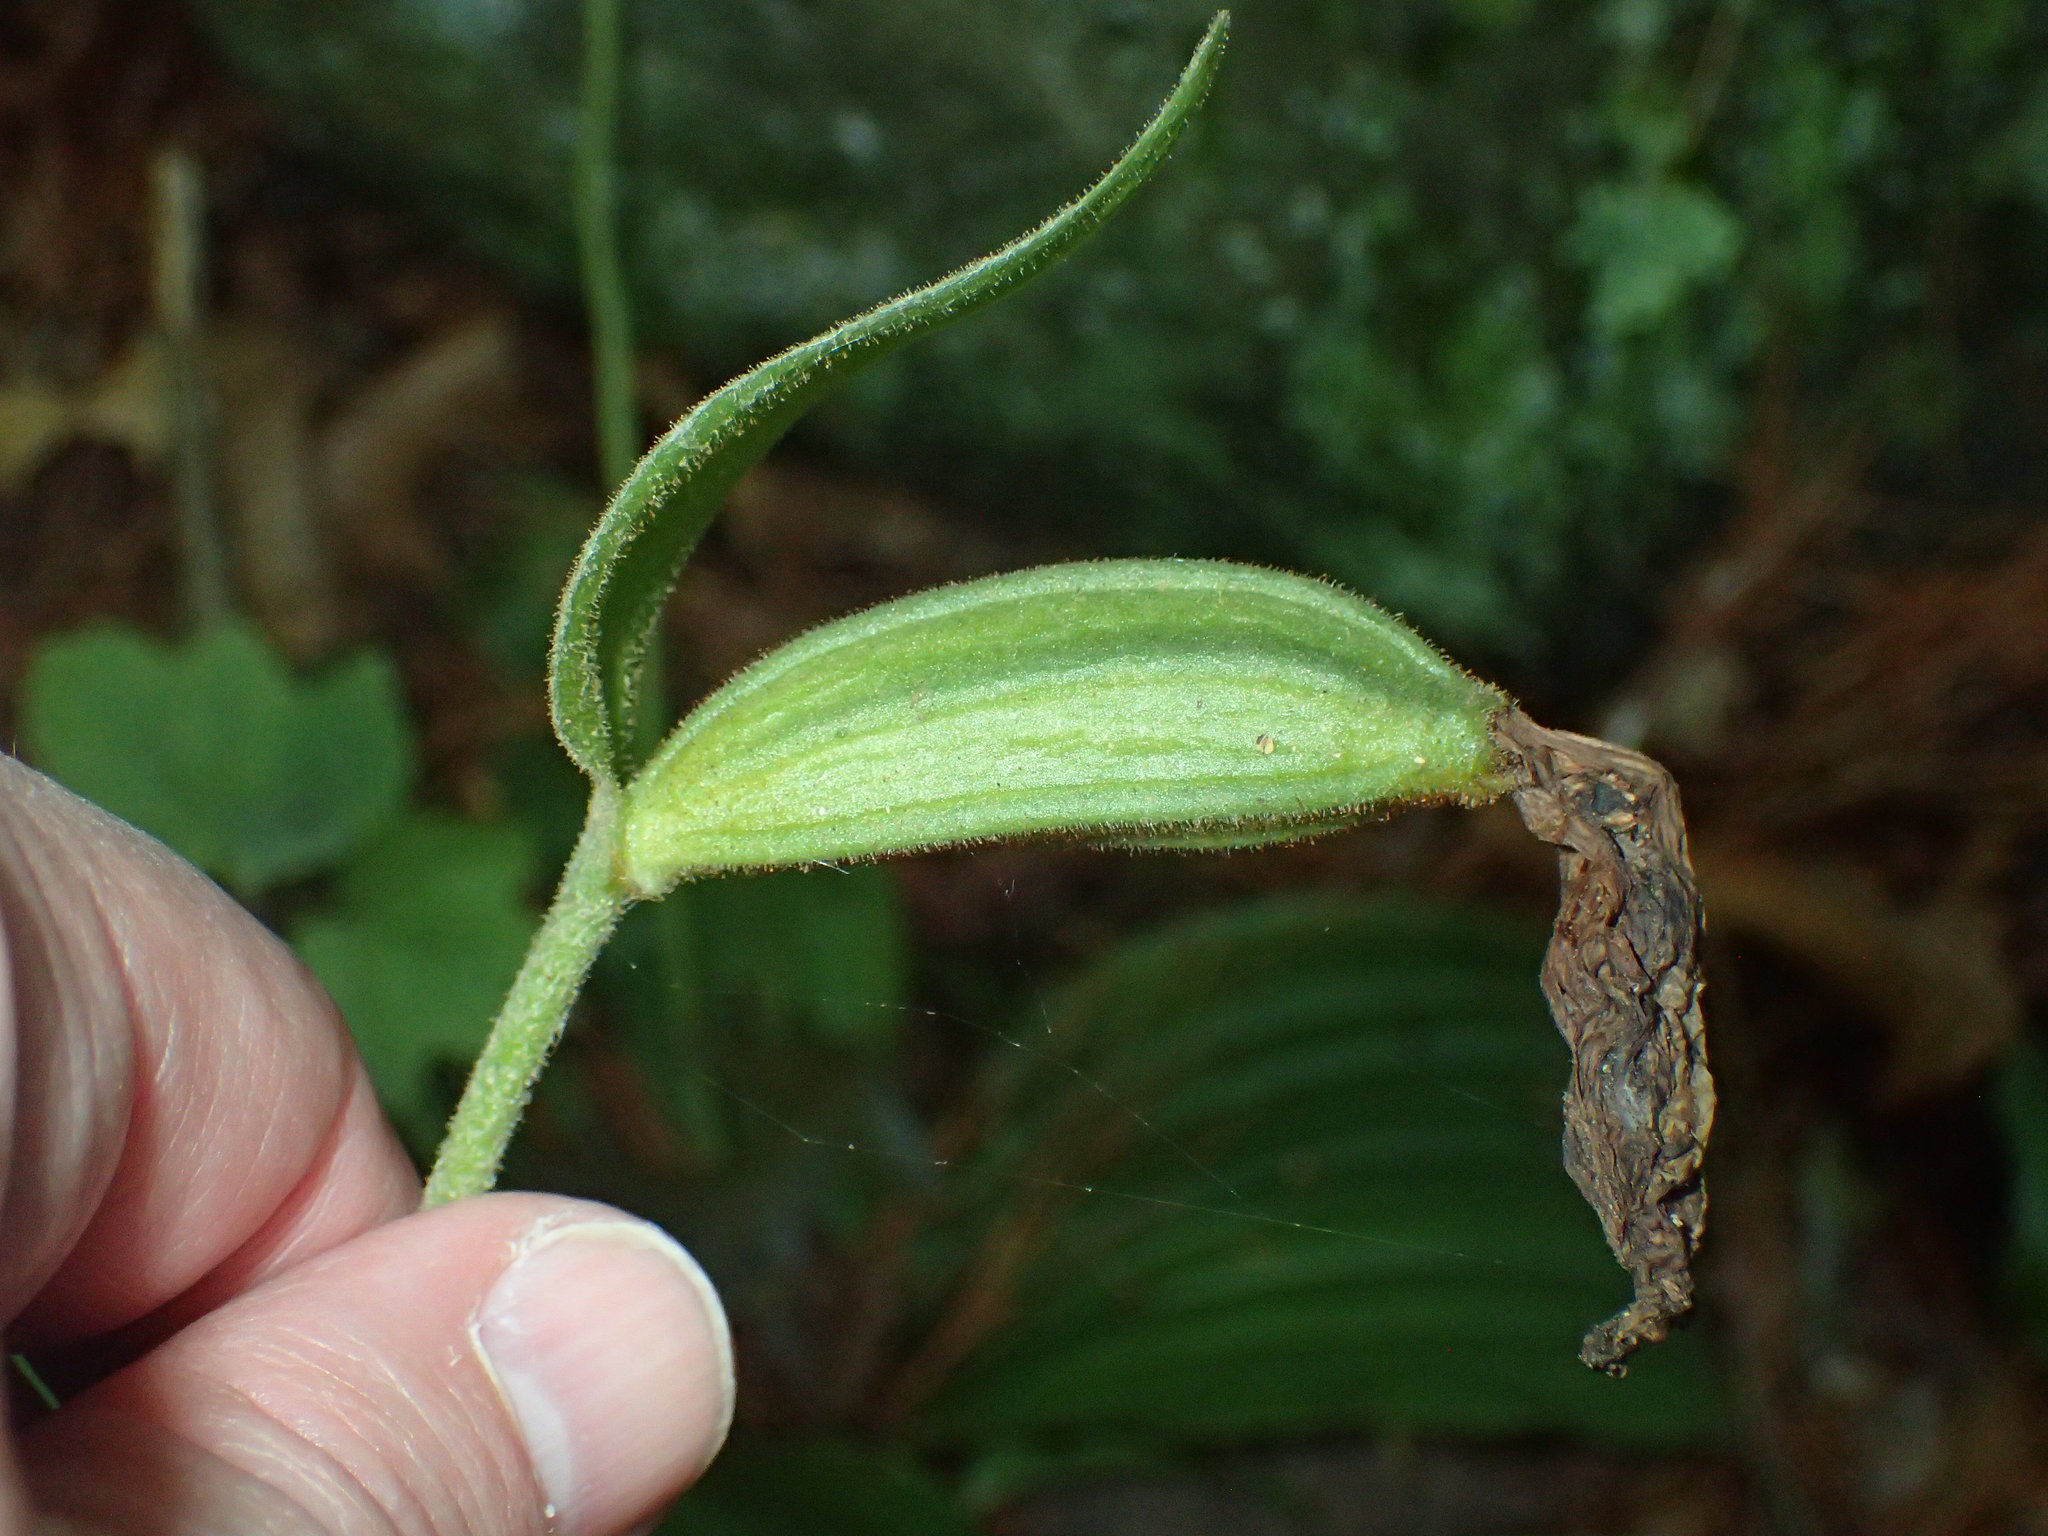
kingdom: Plantae
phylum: Tracheophyta
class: Liliopsida
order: Asparagales
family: Orchidaceae
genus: Cypripedium
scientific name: Cypripedium acaule
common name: Pink lady's-slipper
